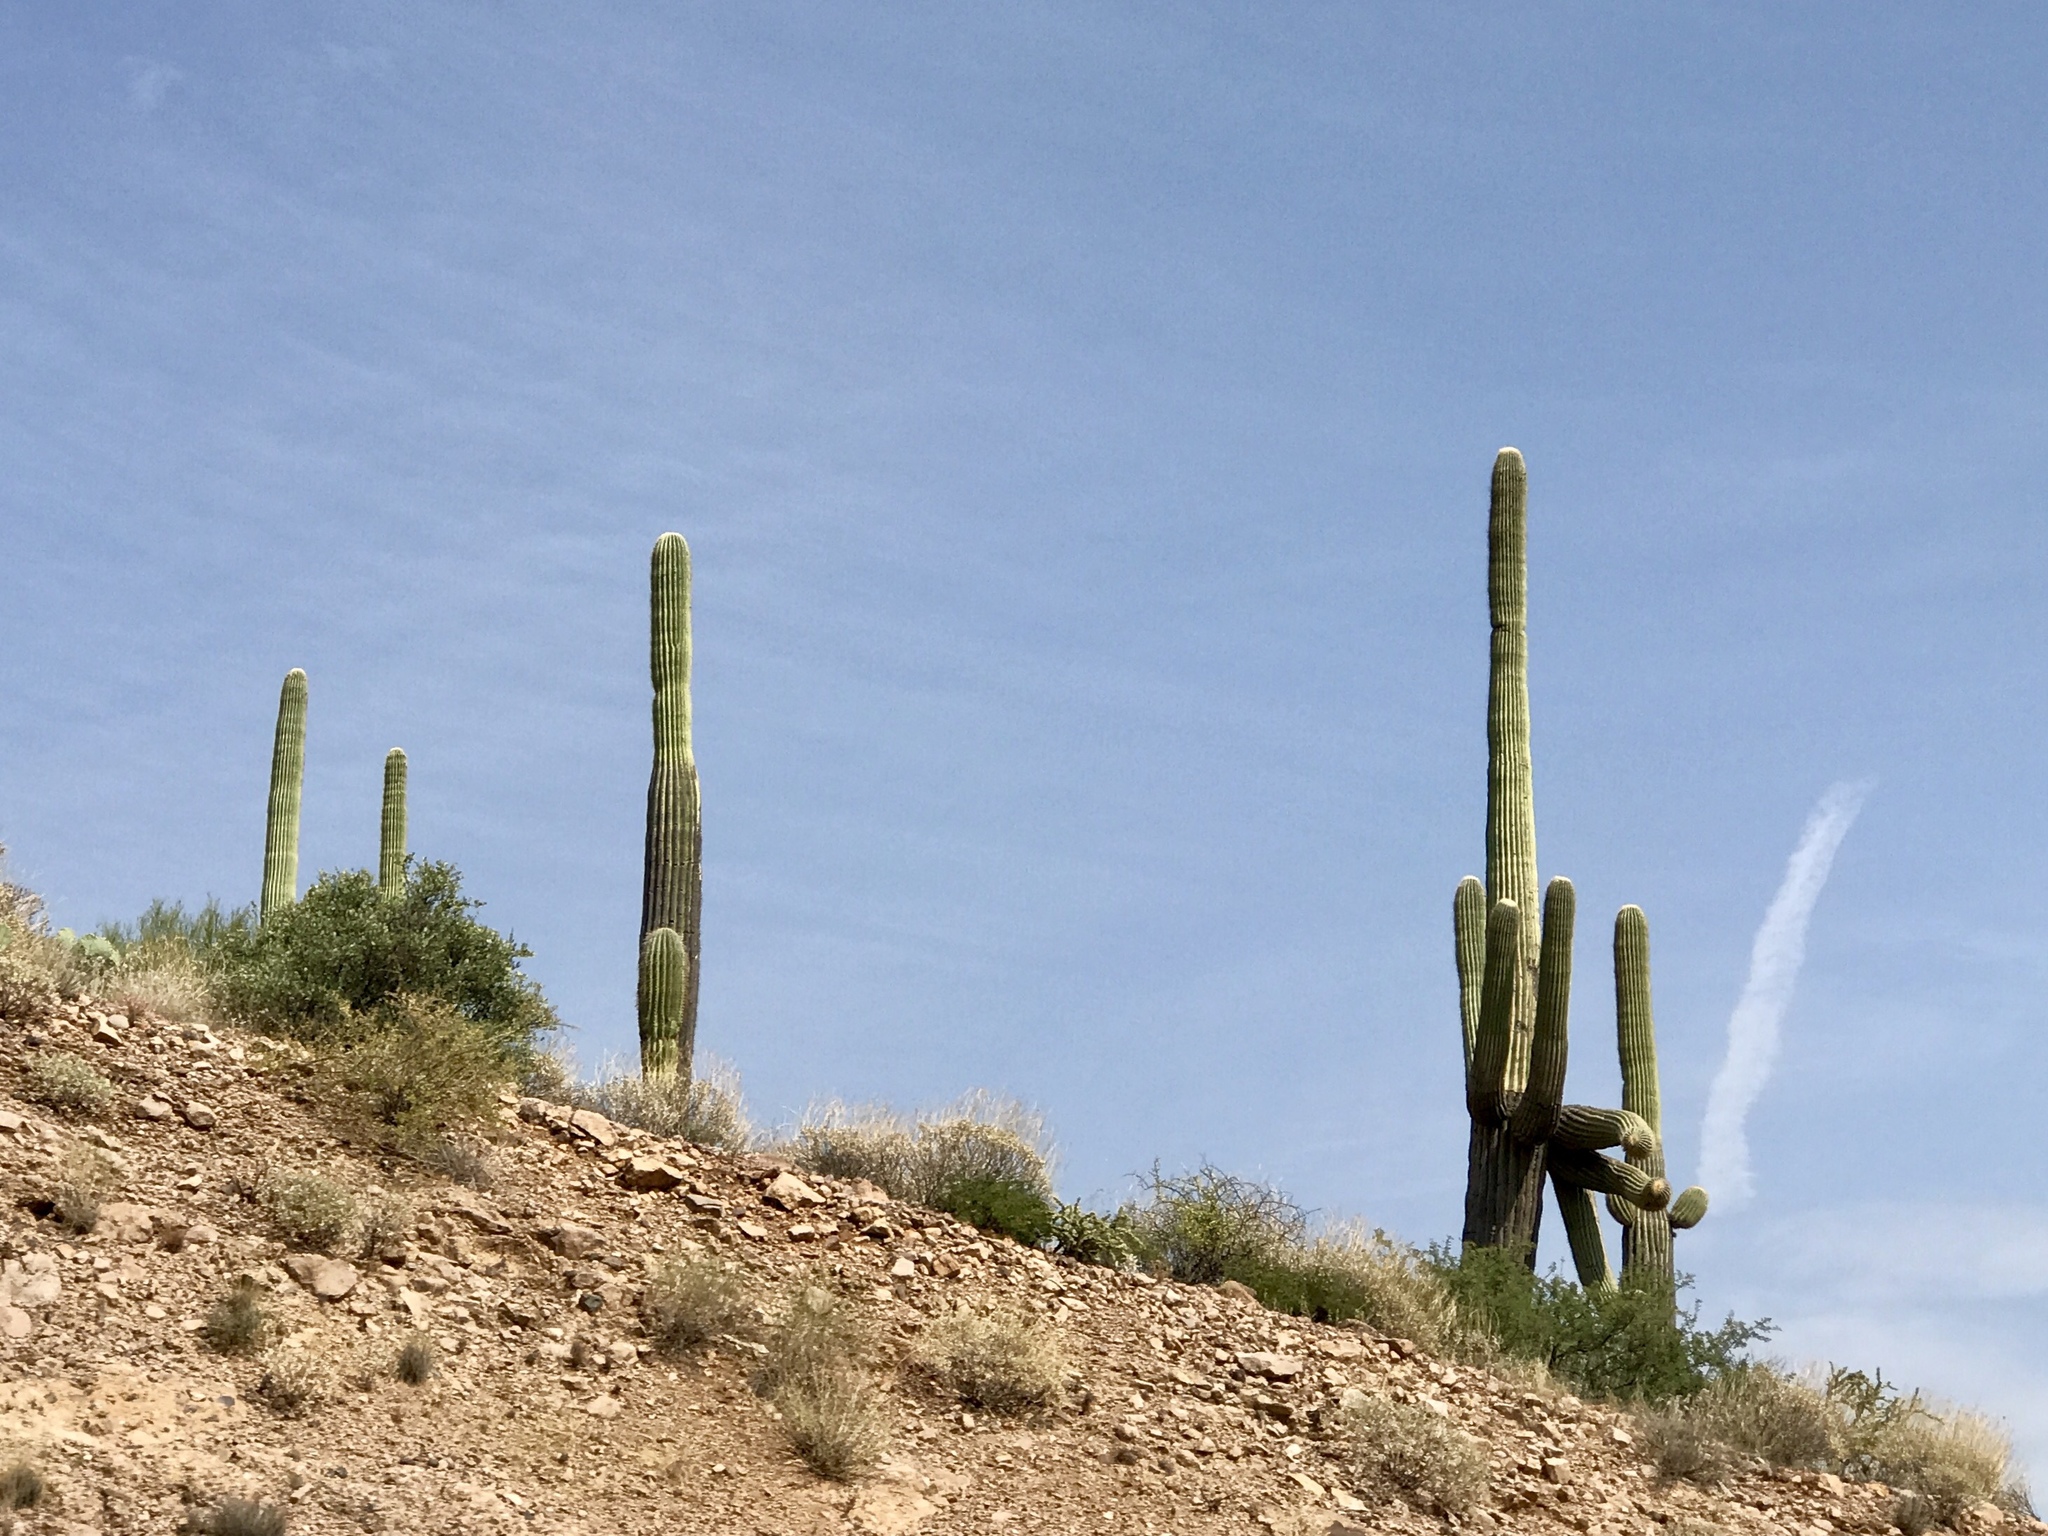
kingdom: Plantae
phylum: Tracheophyta
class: Magnoliopsida
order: Caryophyllales
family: Cactaceae
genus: Carnegiea
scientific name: Carnegiea gigantea
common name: Saguaro
